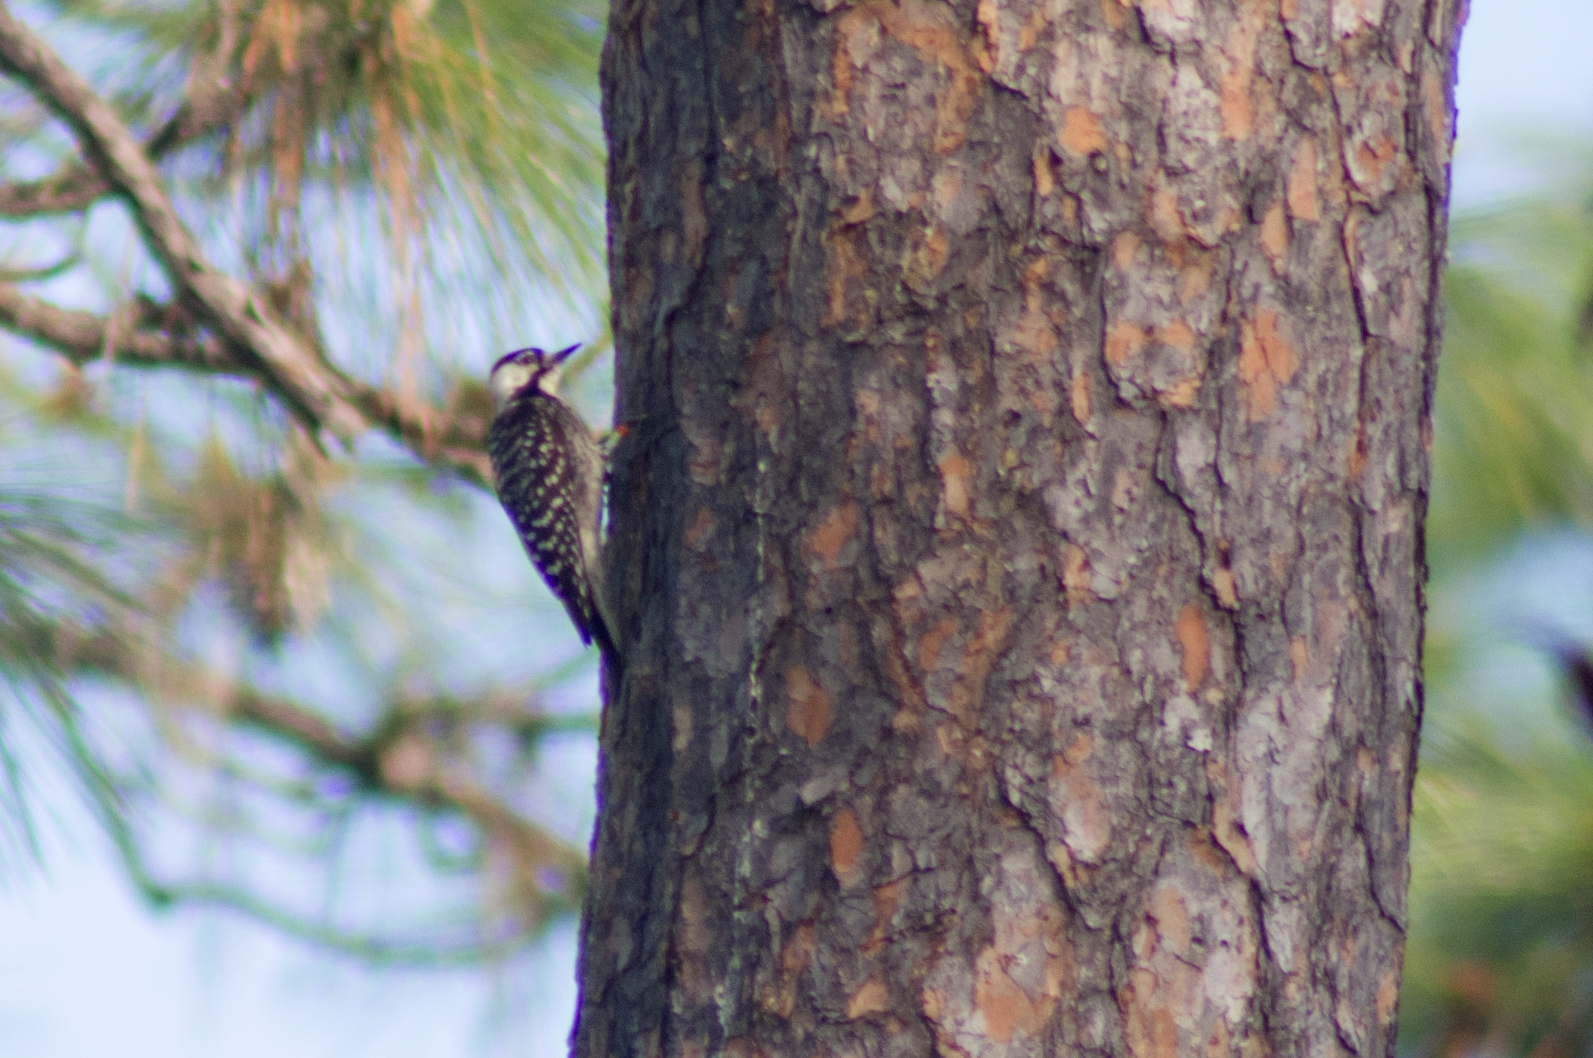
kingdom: Animalia
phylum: Chordata
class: Aves
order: Piciformes
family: Picidae
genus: Leuconotopicus
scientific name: Leuconotopicus borealis
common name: Red-cockaded woodpecker
